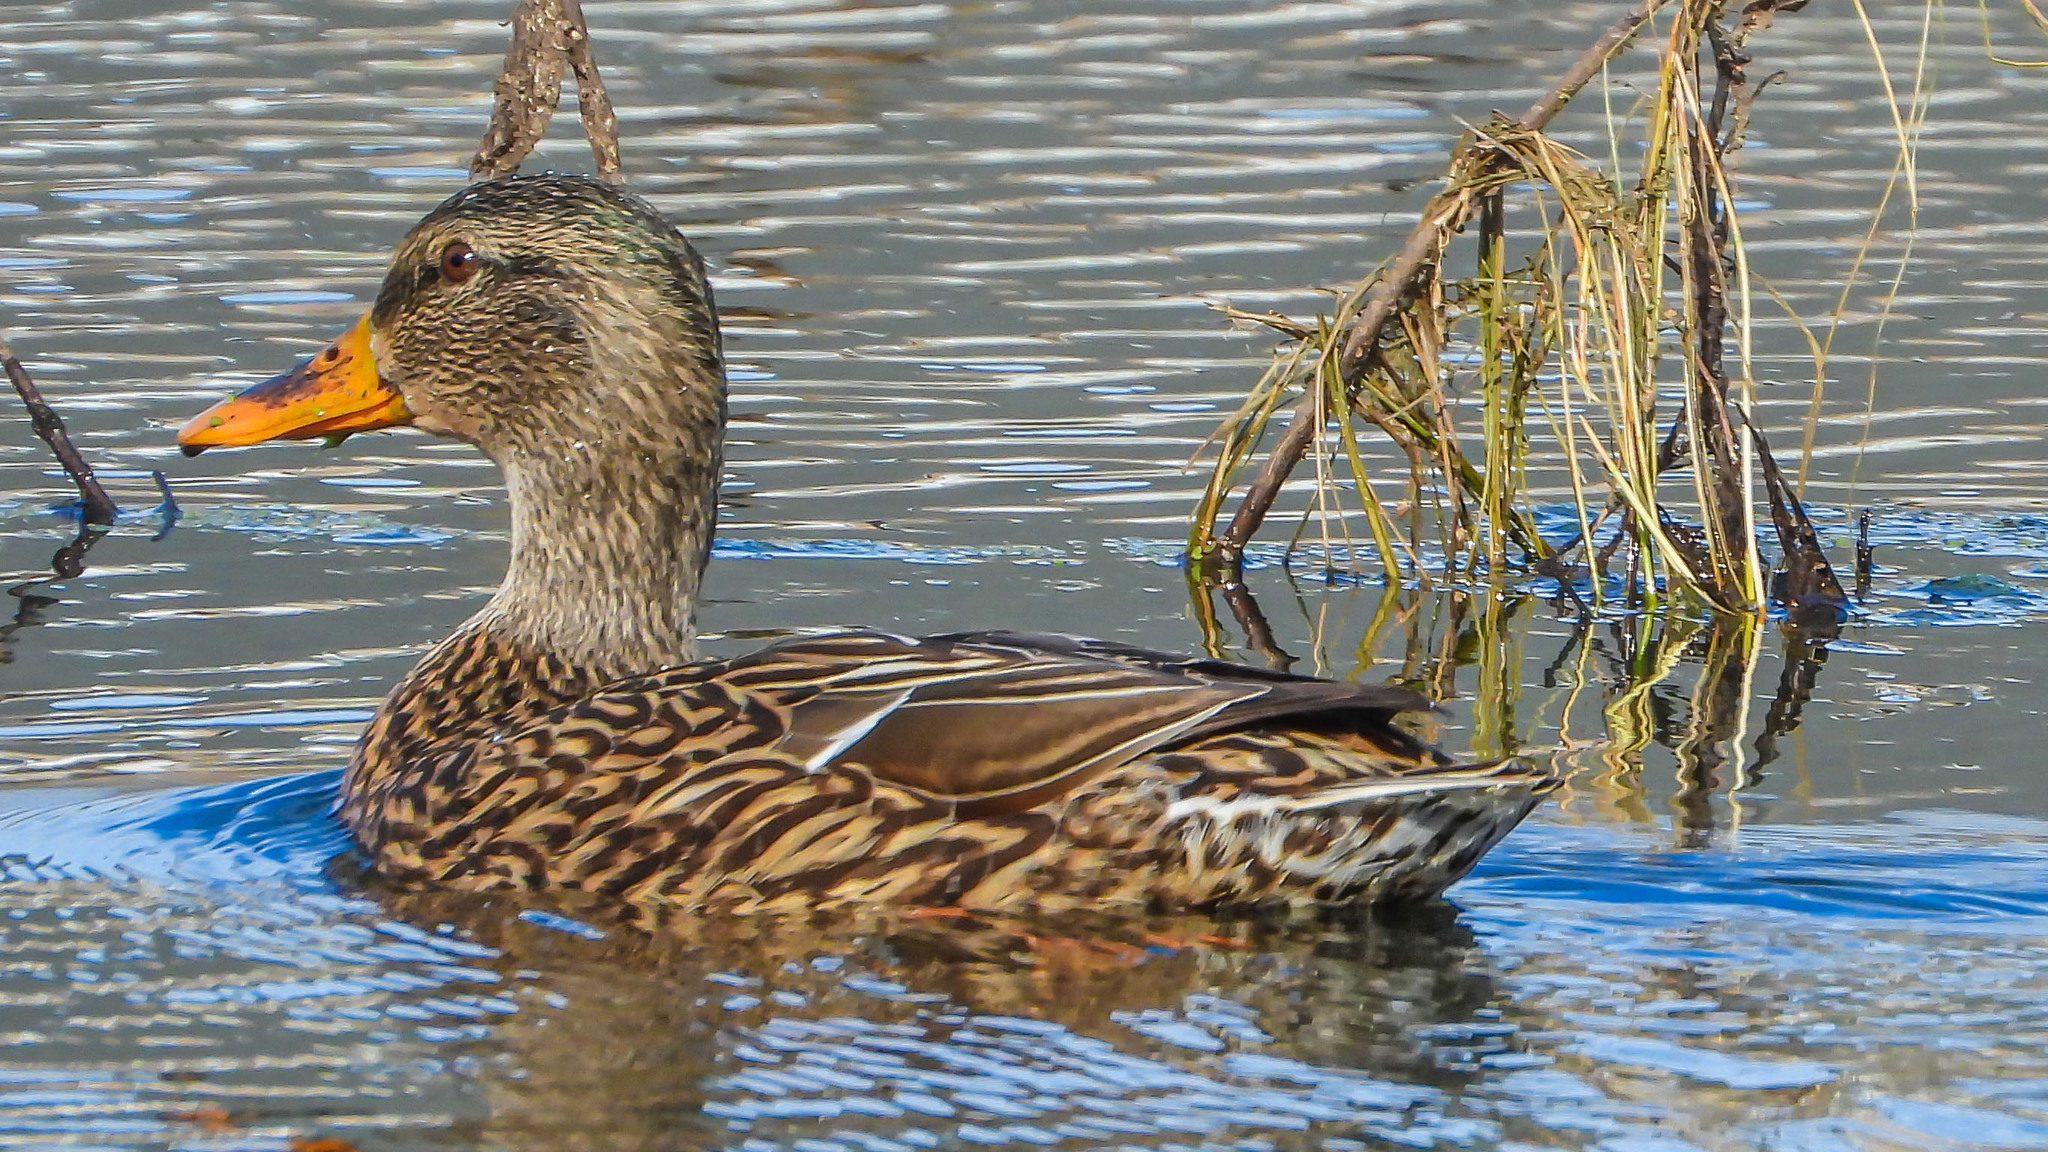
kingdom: Animalia
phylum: Chordata
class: Aves
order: Anseriformes
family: Anatidae
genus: Anas
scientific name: Anas platyrhynchos
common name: Mallard
